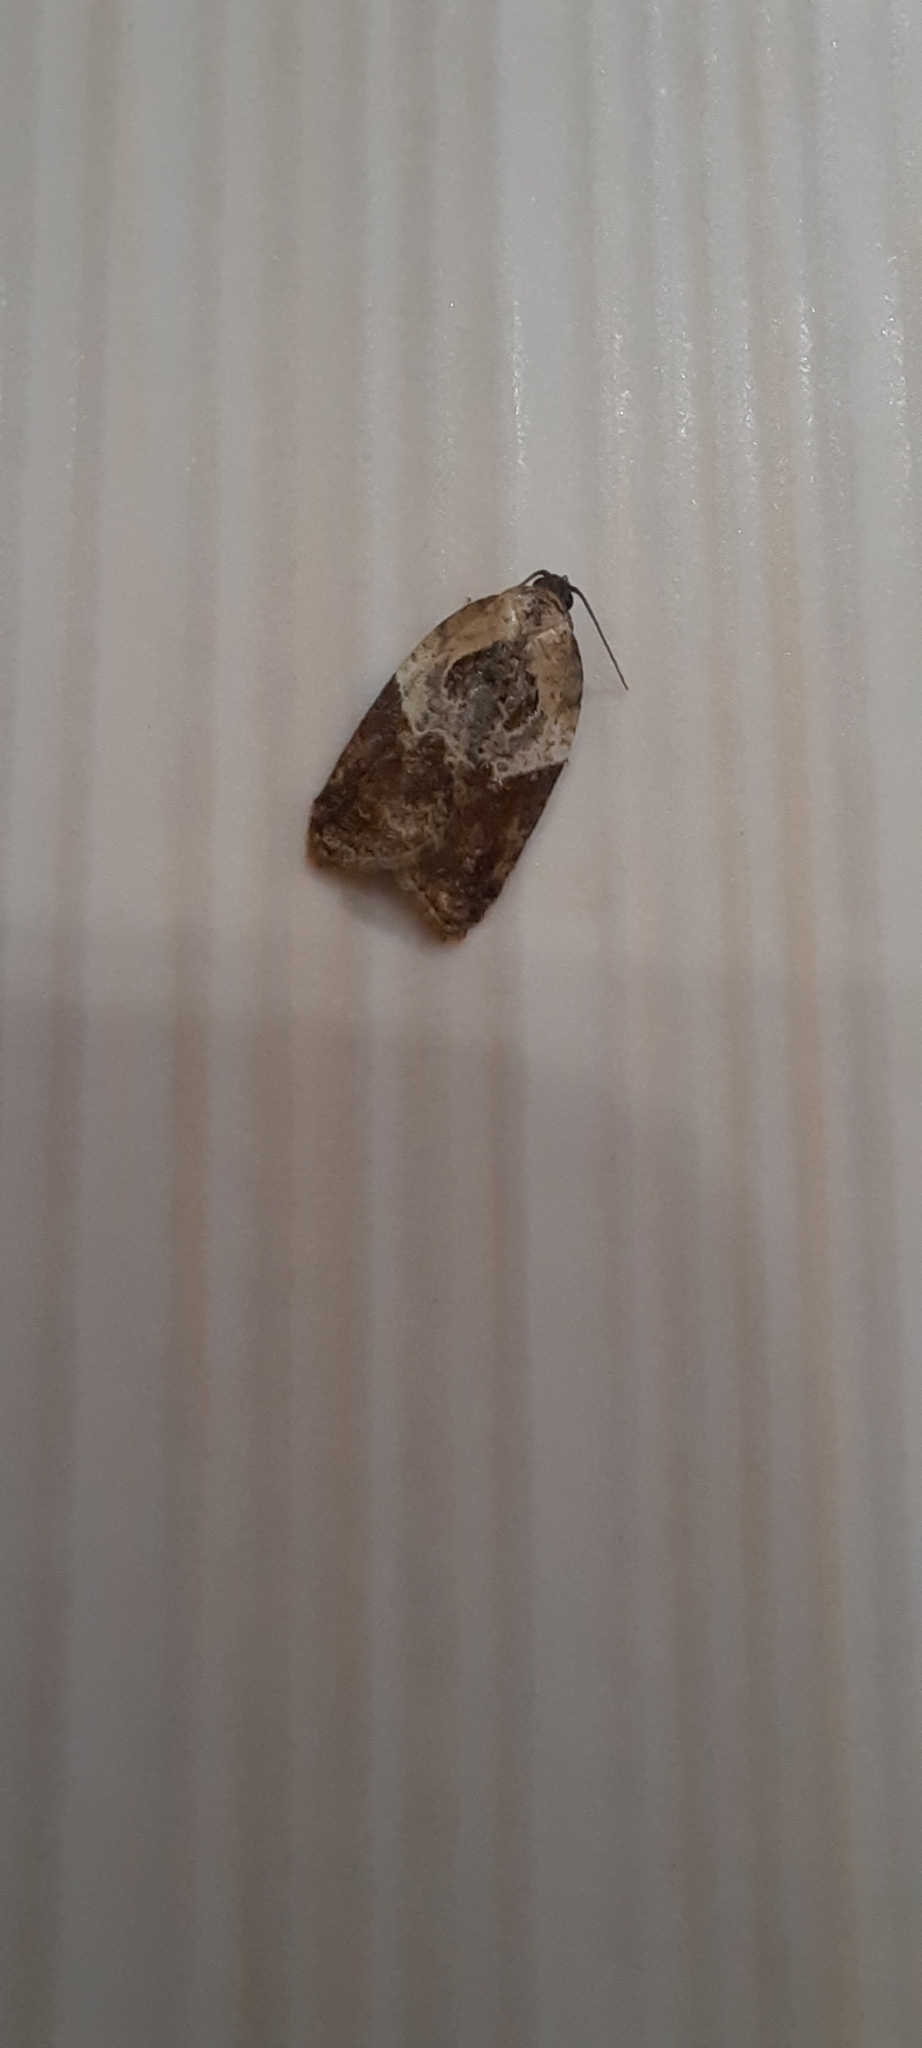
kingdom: Animalia
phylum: Arthropoda
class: Insecta
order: Lepidoptera
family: Tortricidae
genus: Acleris
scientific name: Acleris variegana
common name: Garden rose tortrix
